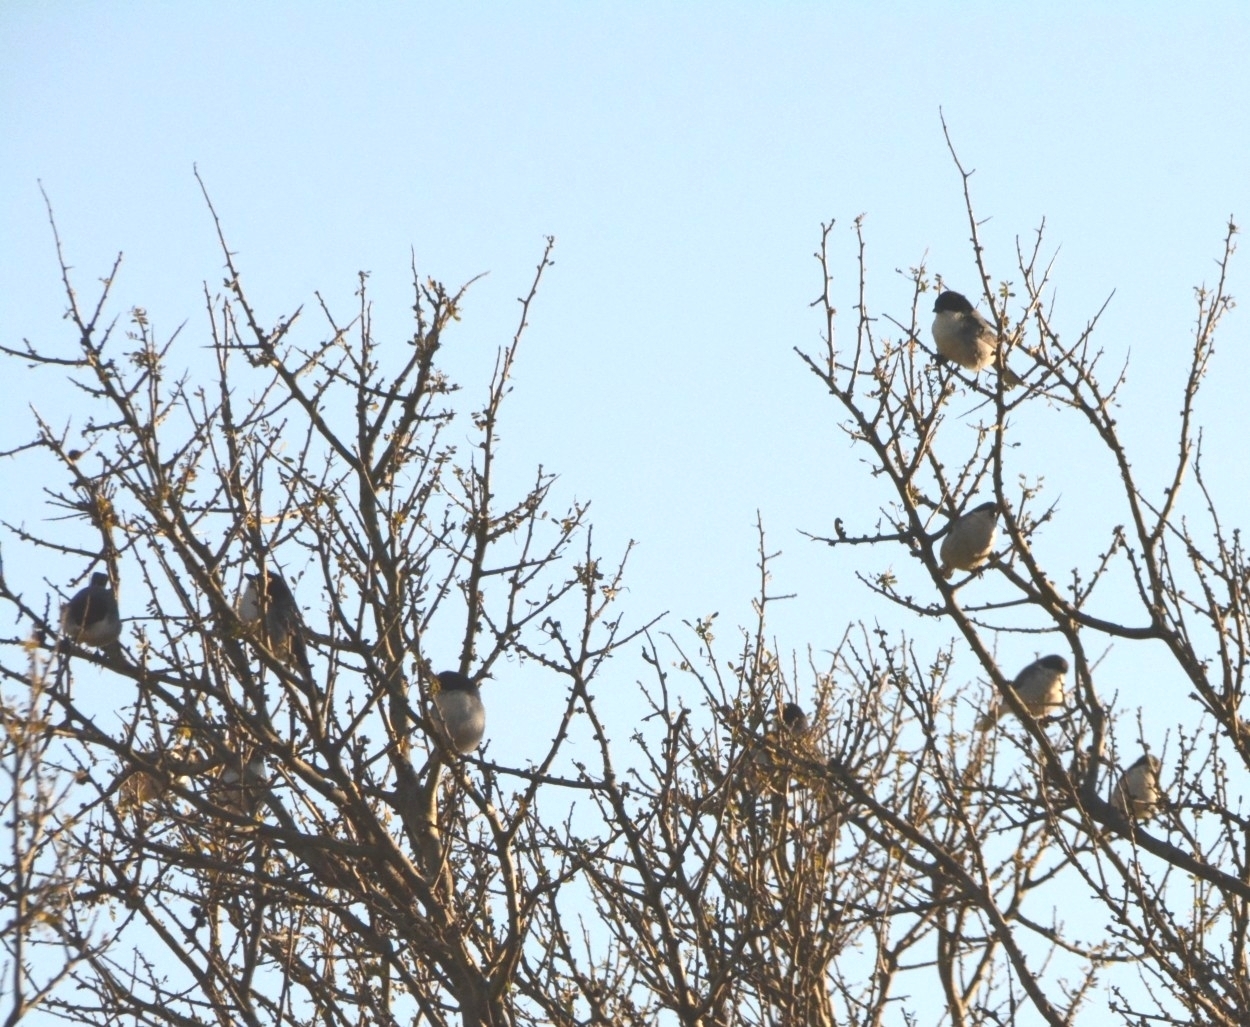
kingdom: Animalia
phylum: Chordata
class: Aves
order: Passeriformes
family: Thraupidae
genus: Microspingus
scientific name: Microspingus melanoleucus
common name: Black-capped warbling-finch
